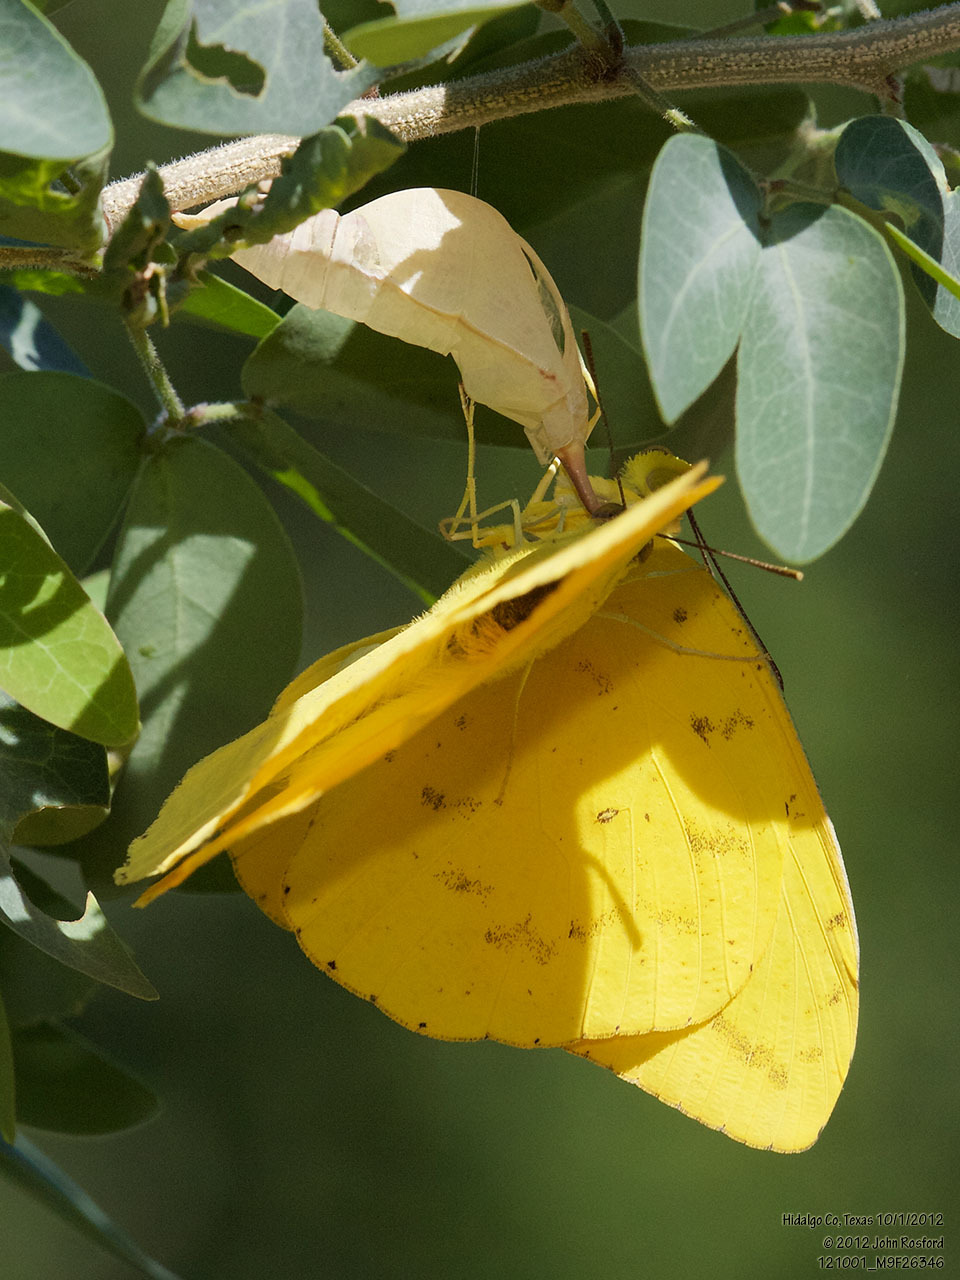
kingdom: Animalia
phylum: Arthropoda
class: Insecta
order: Lepidoptera
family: Pieridae
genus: Phoebis
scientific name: Phoebis agarithe
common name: Large orange sulphur
